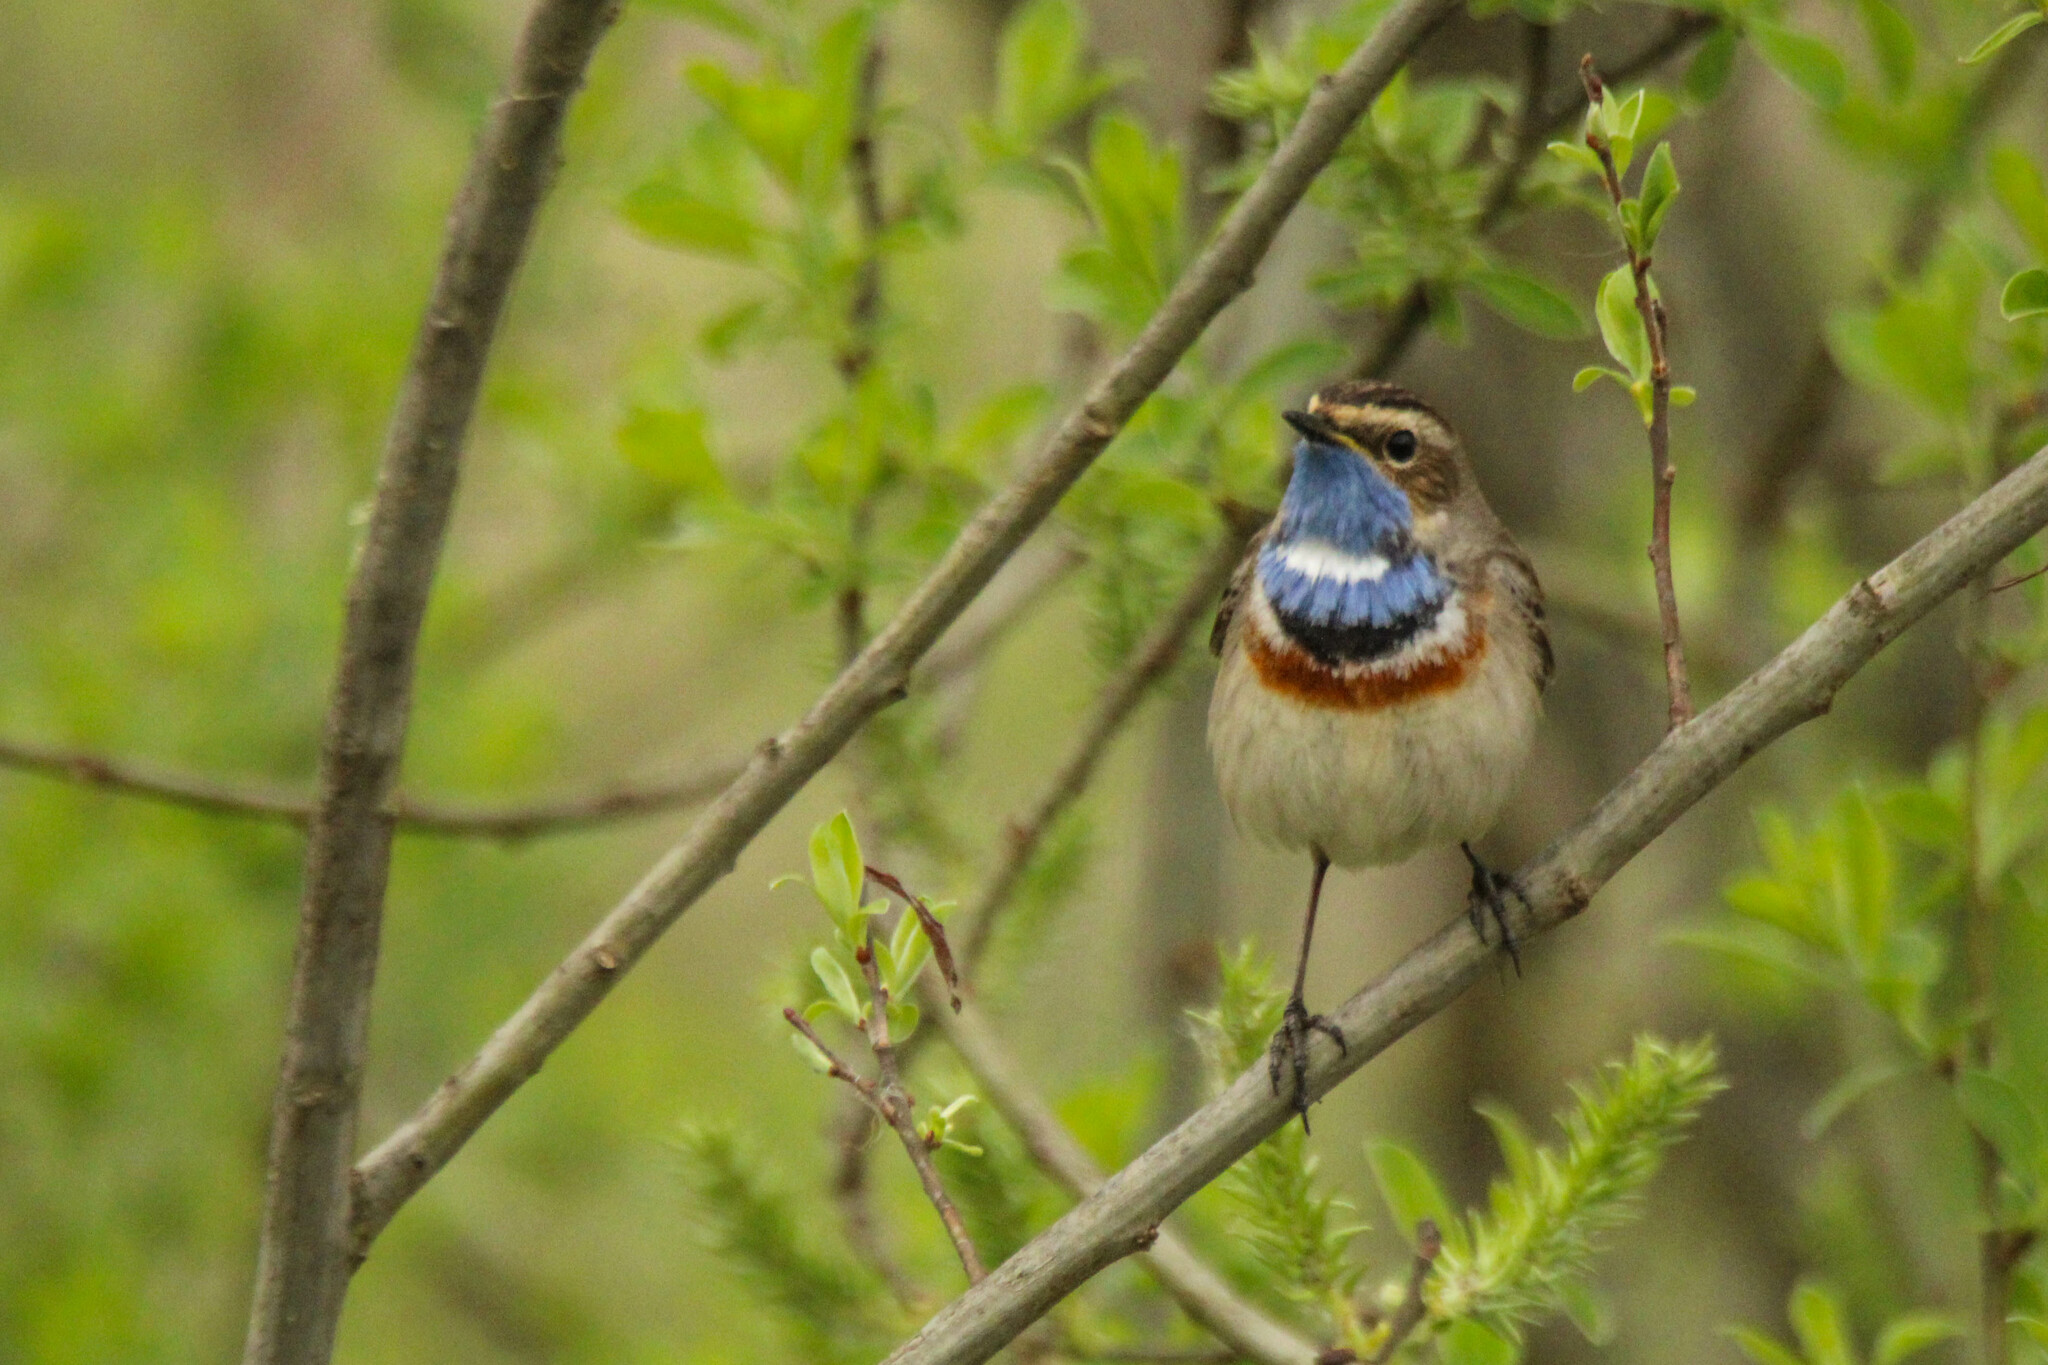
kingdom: Animalia
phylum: Chordata
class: Aves
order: Passeriformes
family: Muscicapidae
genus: Luscinia
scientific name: Luscinia svecica
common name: Bluethroat
